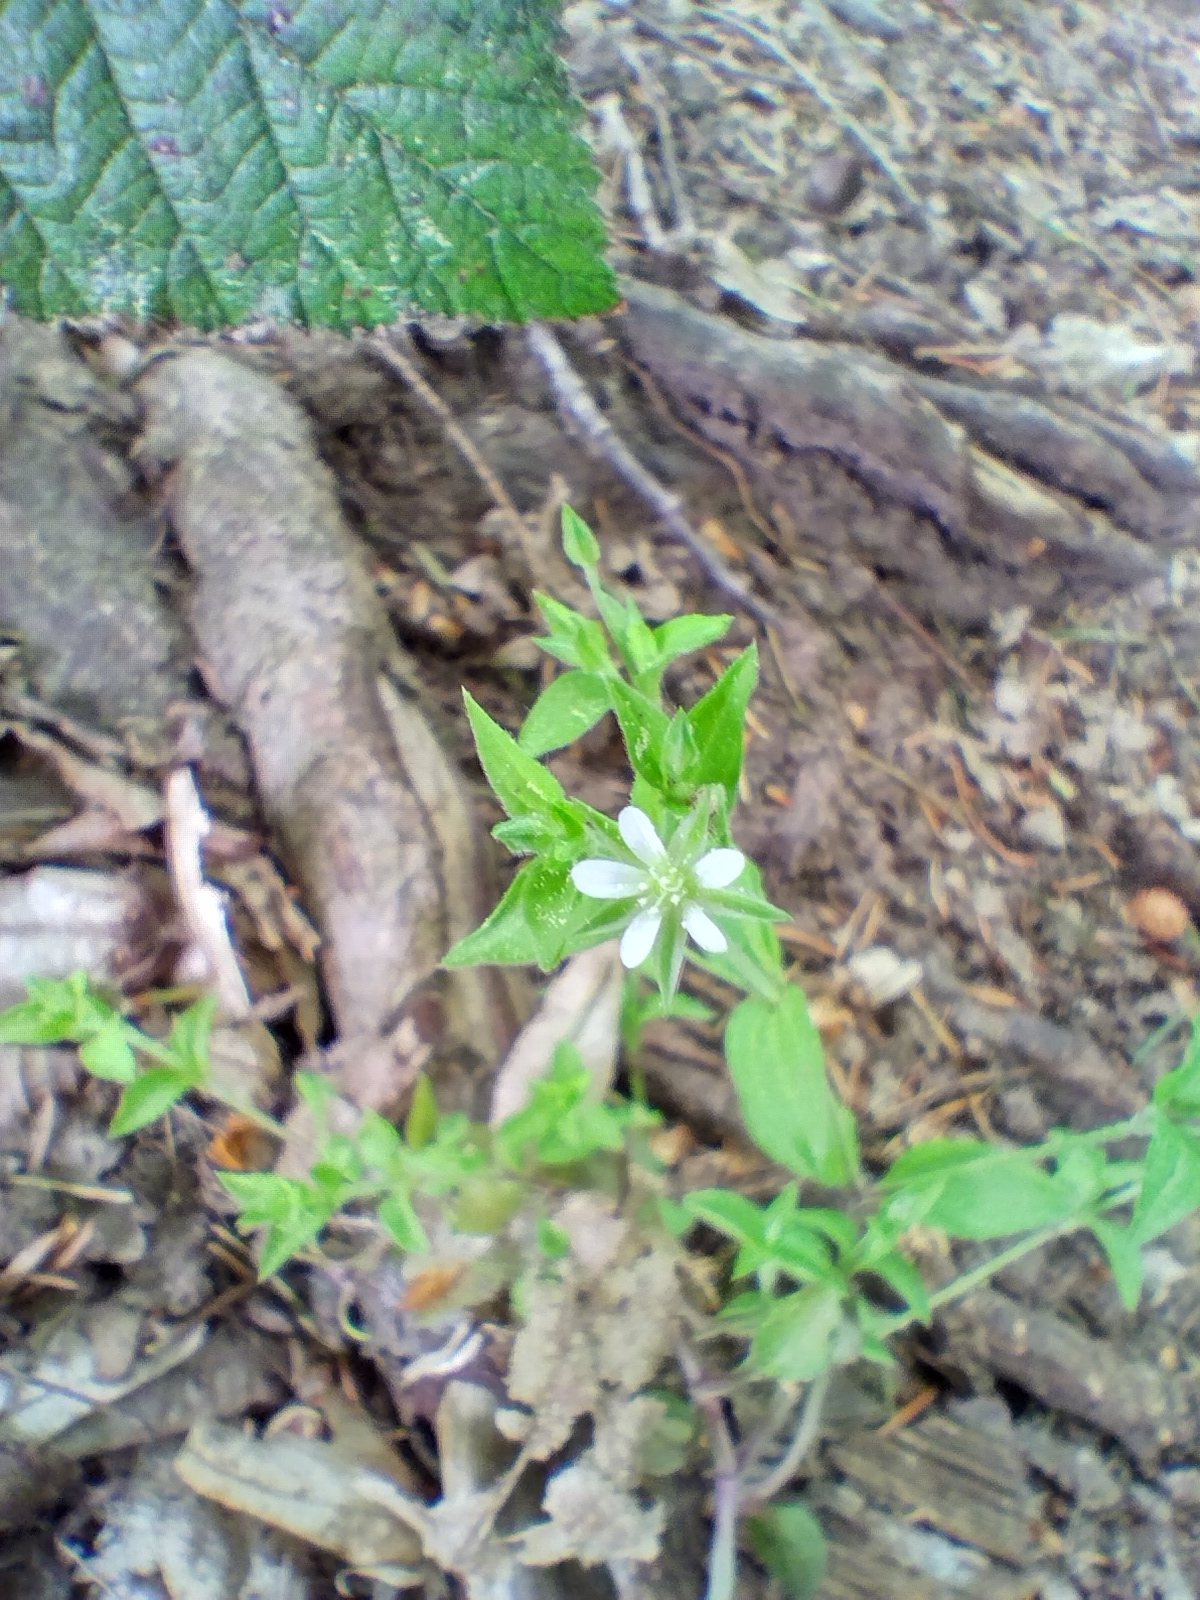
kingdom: Plantae
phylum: Tracheophyta
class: Magnoliopsida
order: Caryophyllales
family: Caryophyllaceae
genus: Moehringia
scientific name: Moehringia trinervia
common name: Three-nerved sandwort
